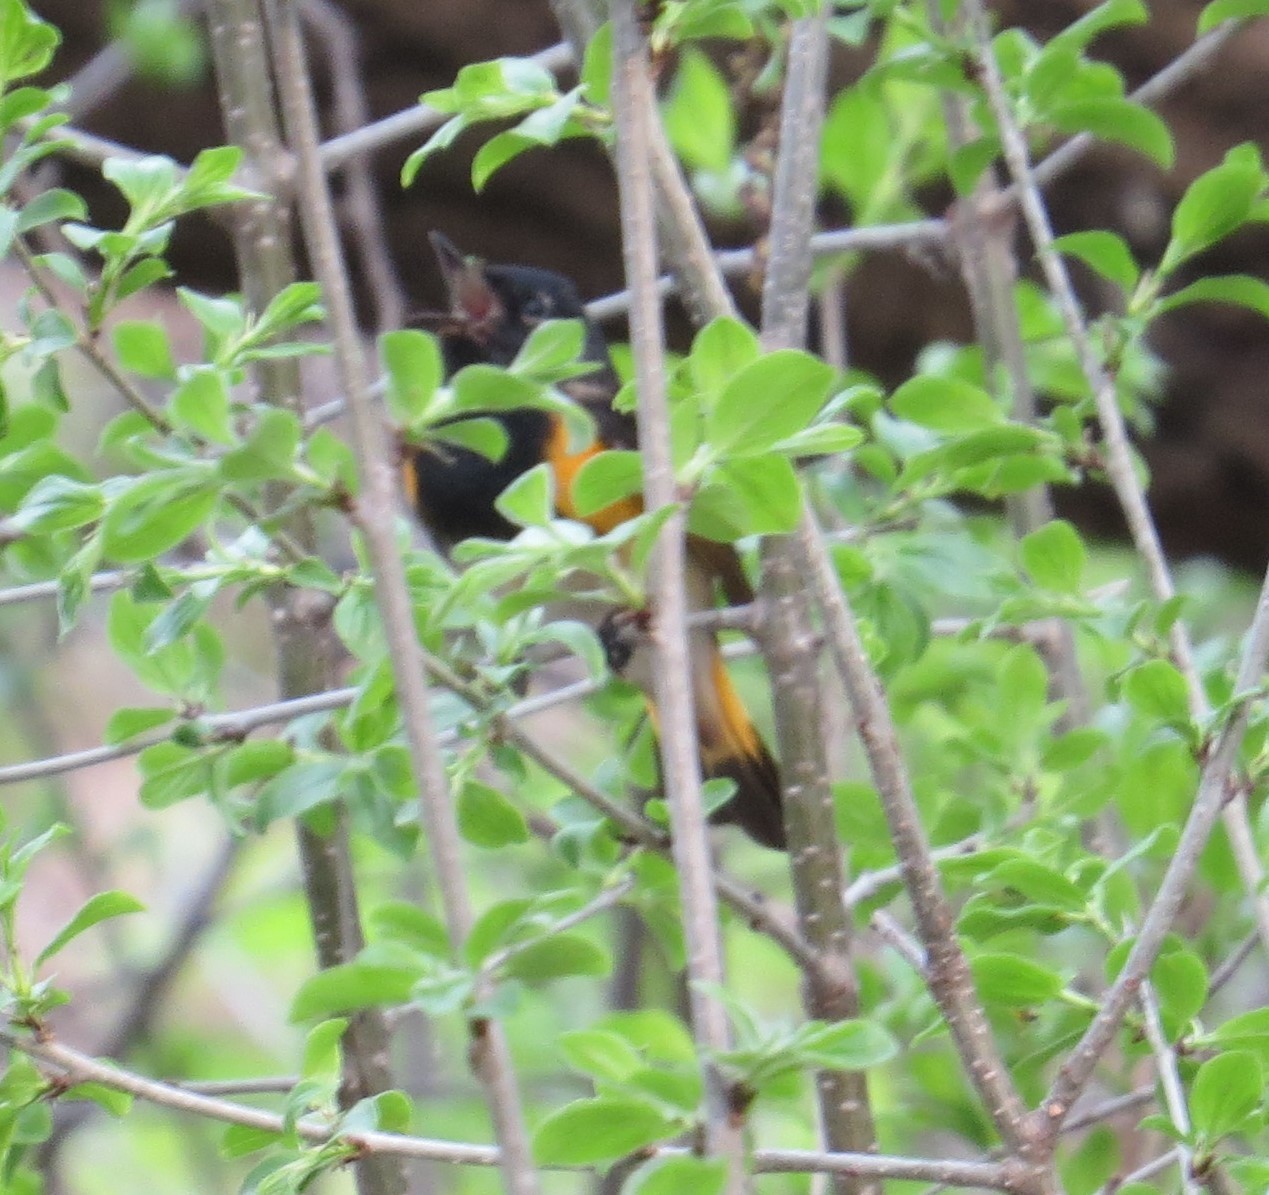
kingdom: Animalia
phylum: Chordata
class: Aves
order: Passeriformes
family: Parulidae
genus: Setophaga
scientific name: Setophaga ruticilla
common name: American redstart
